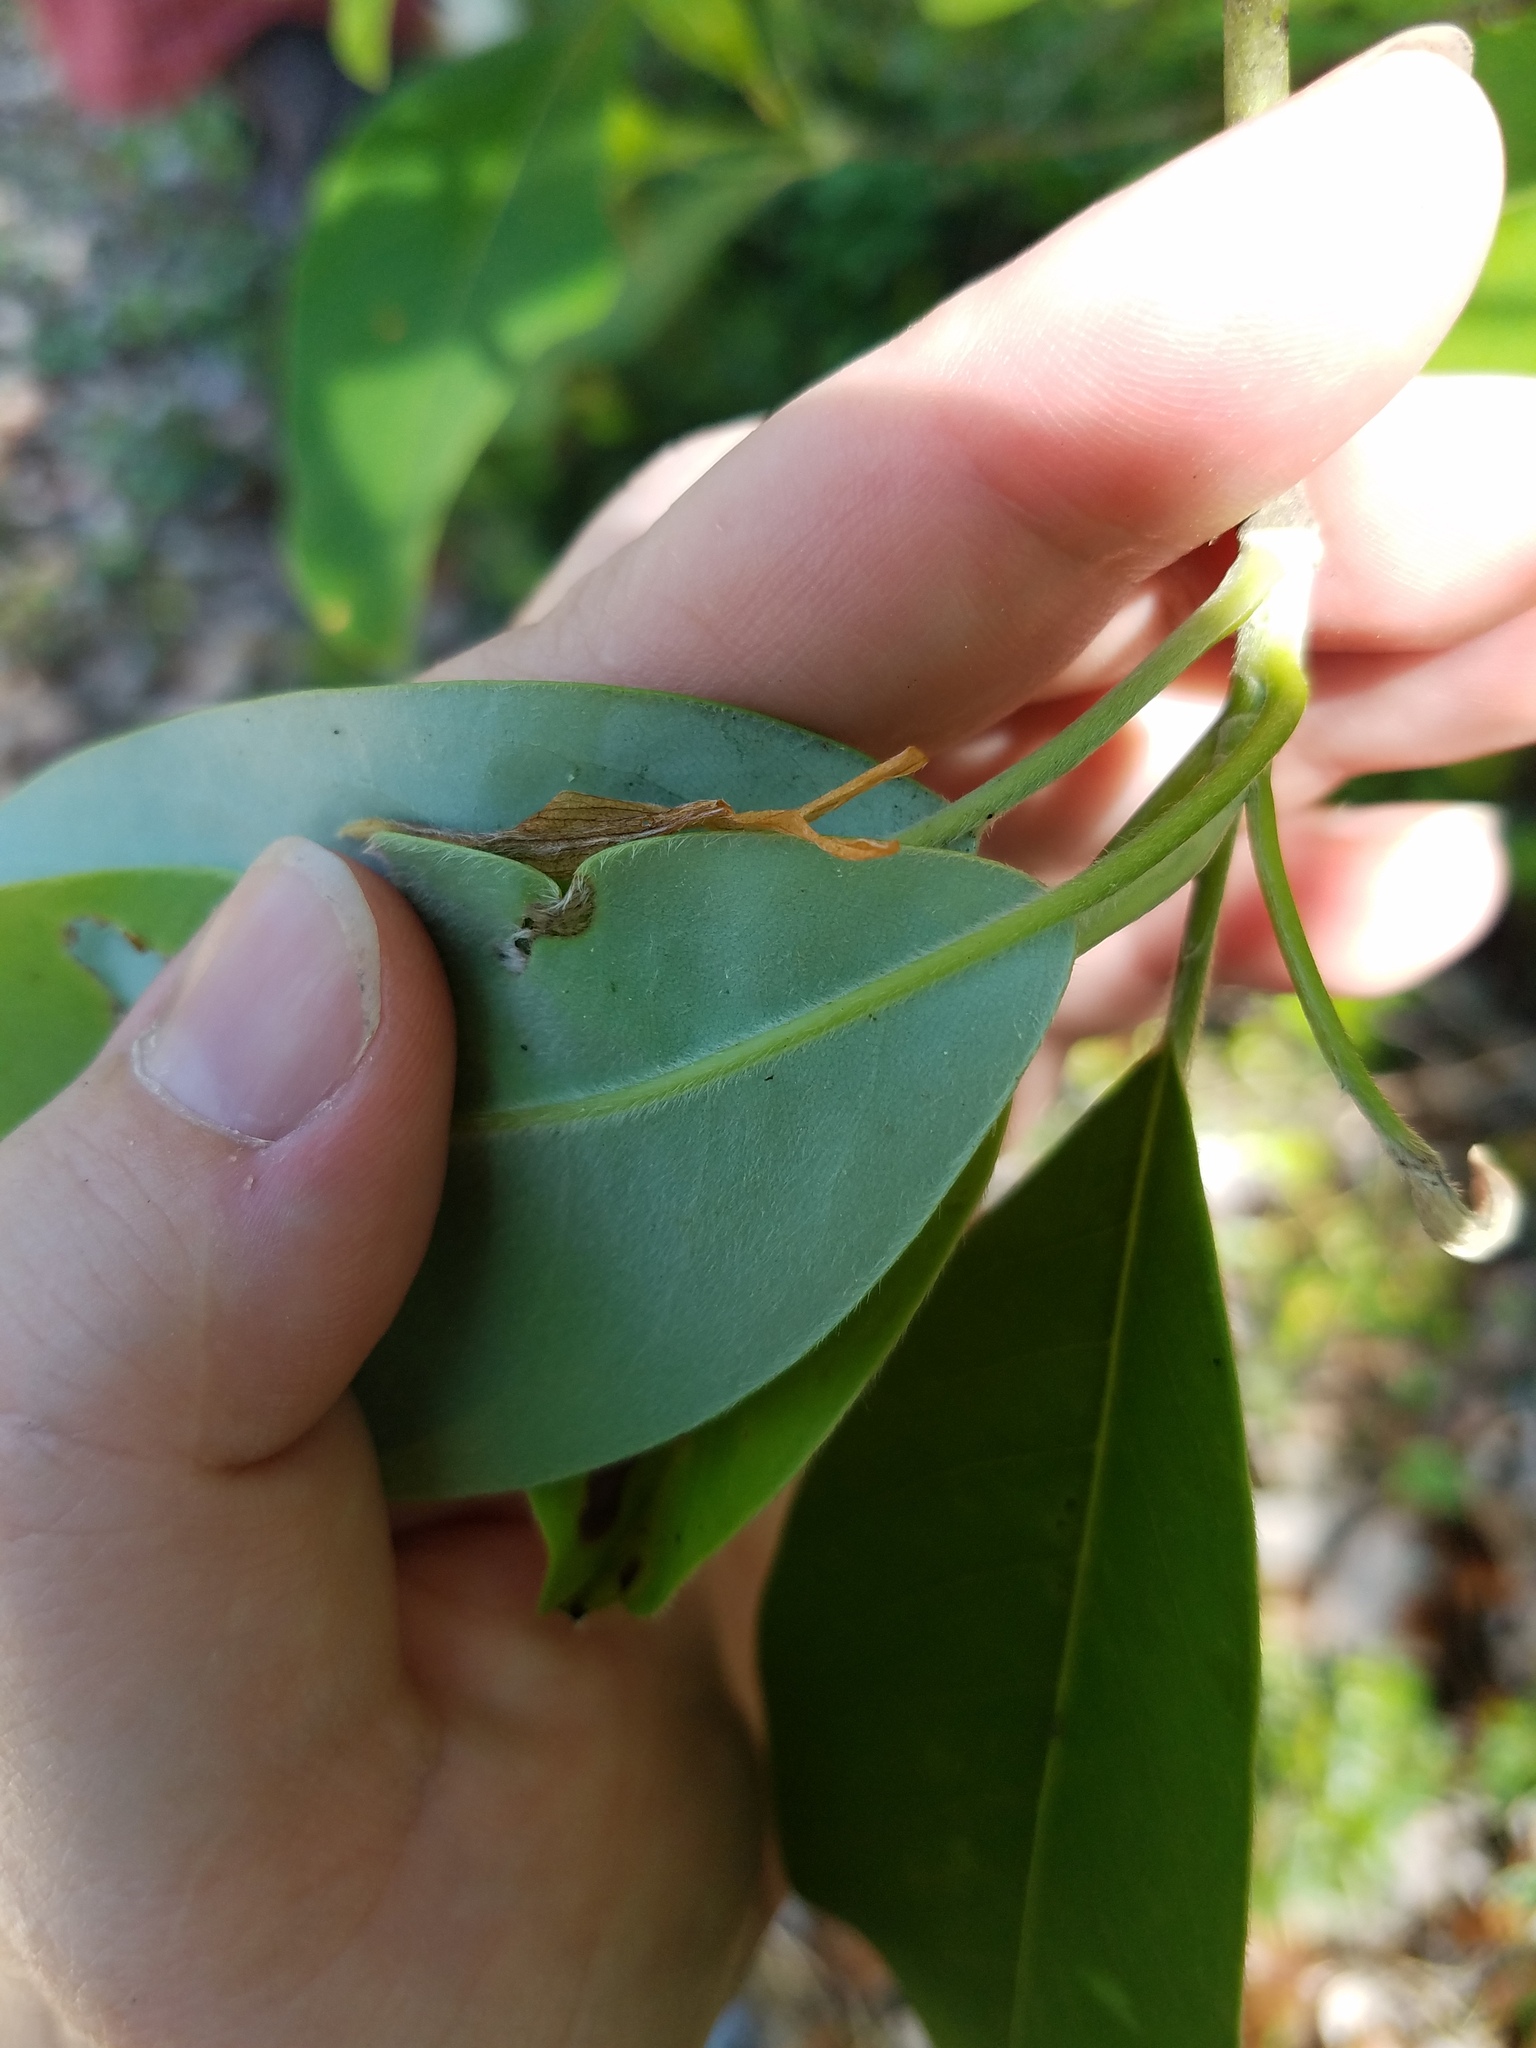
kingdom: Plantae
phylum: Tracheophyta
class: Magnoliopsida
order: Magnoliales
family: Magnoliaceae
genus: Magnolia
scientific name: Magnolia virginiana
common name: Swamp bay
